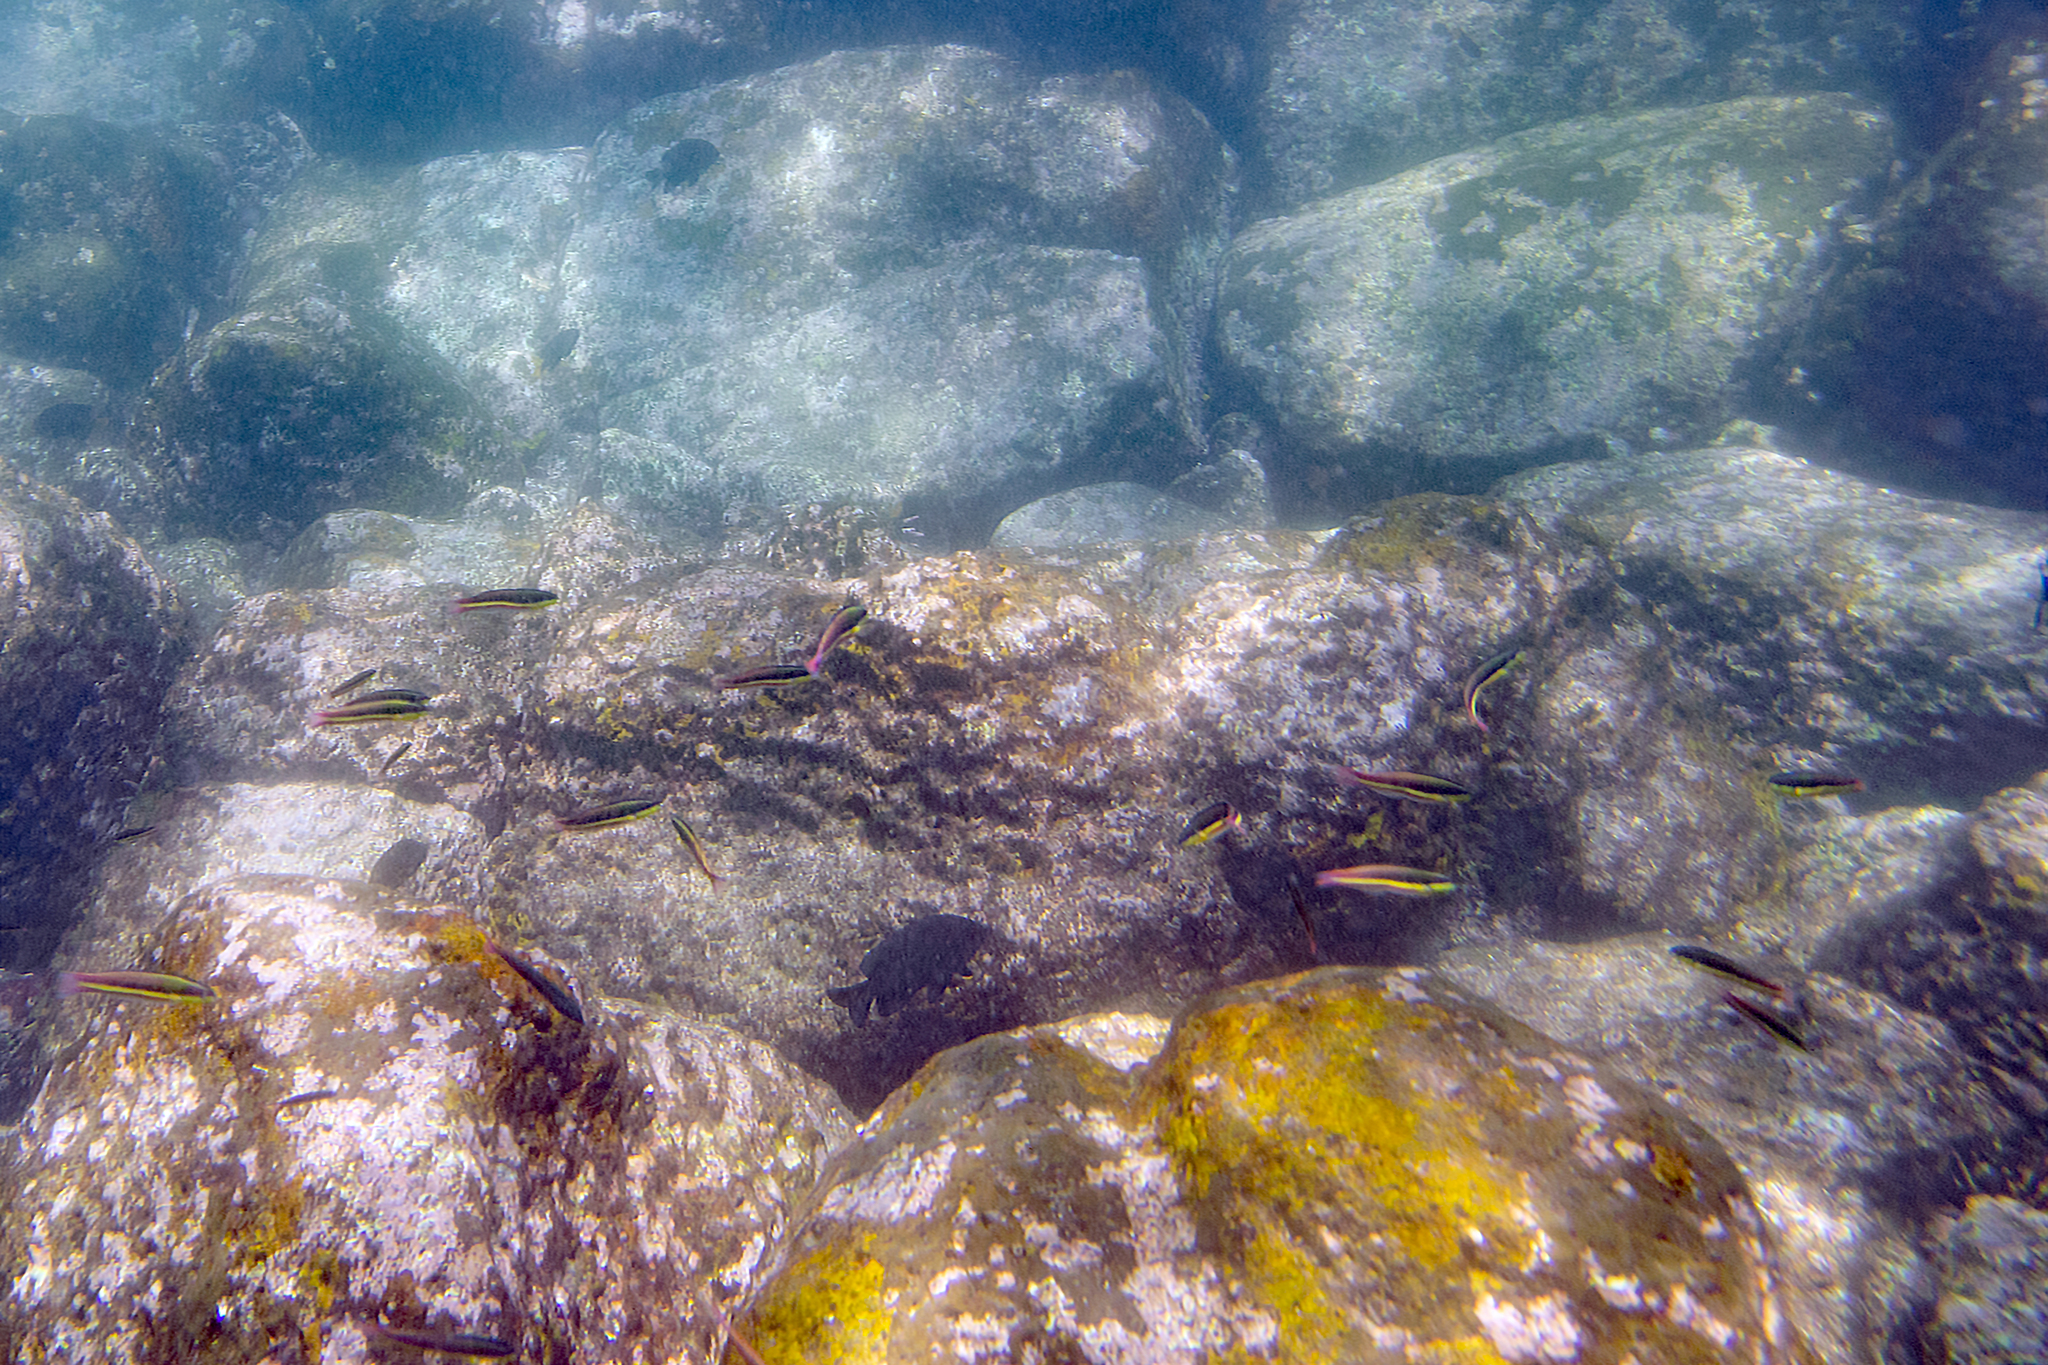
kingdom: Animalia
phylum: Chordata
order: Perciformes
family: Labridae
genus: Thalassoma
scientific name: Thalassoma lucasanum
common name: Cortez rainbow wrasse
